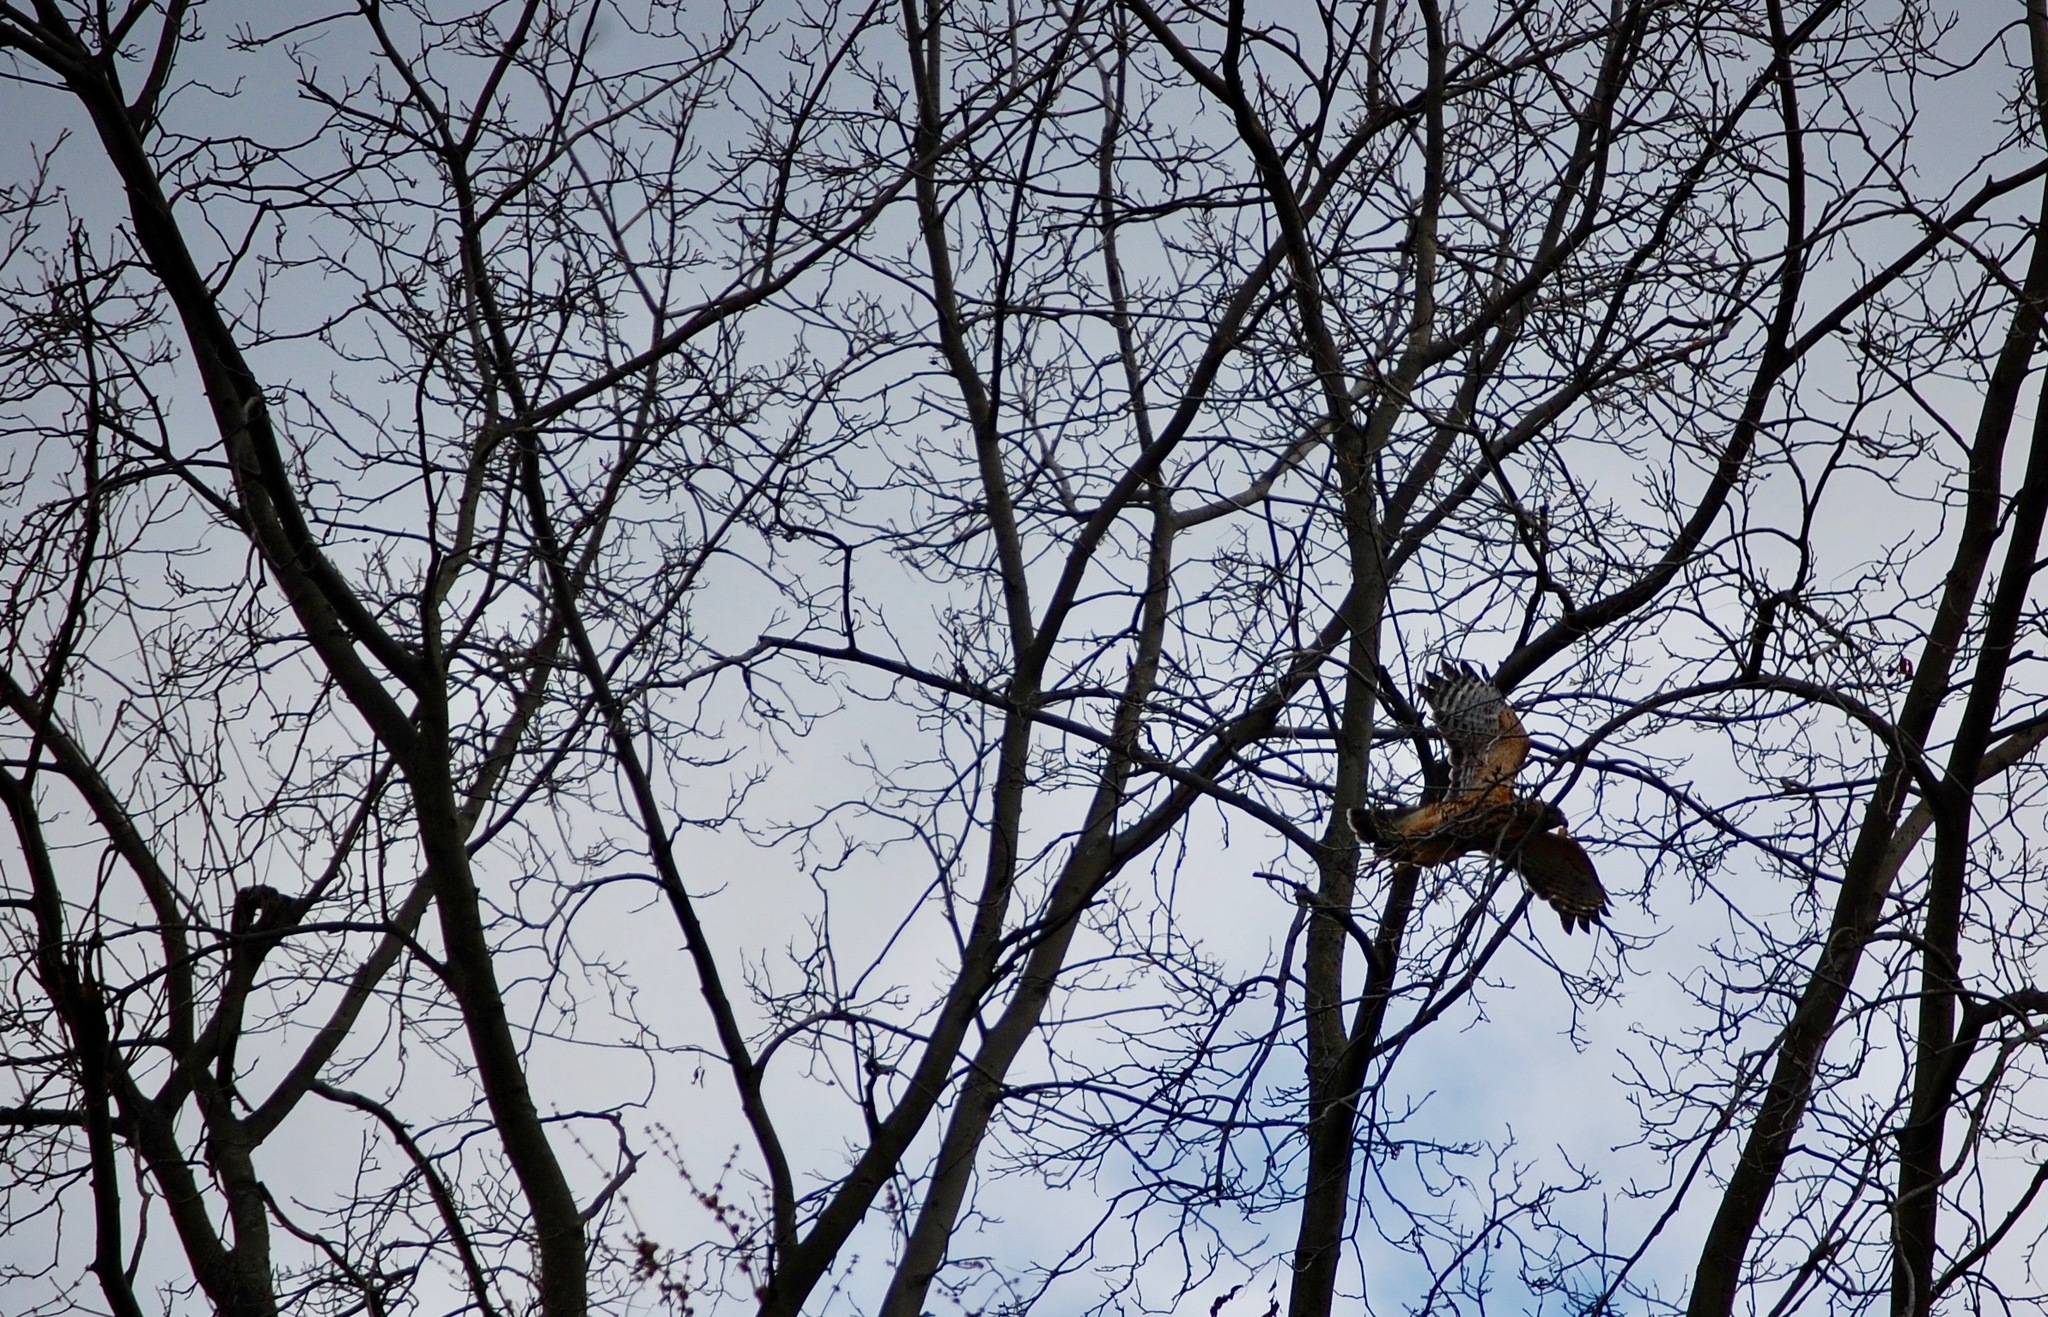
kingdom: Animalia
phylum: Chordata
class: Aves
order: Accipitriformes
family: Accipitridae
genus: Buteo
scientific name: Buteo lineatus
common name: Red-shouldered hawk
